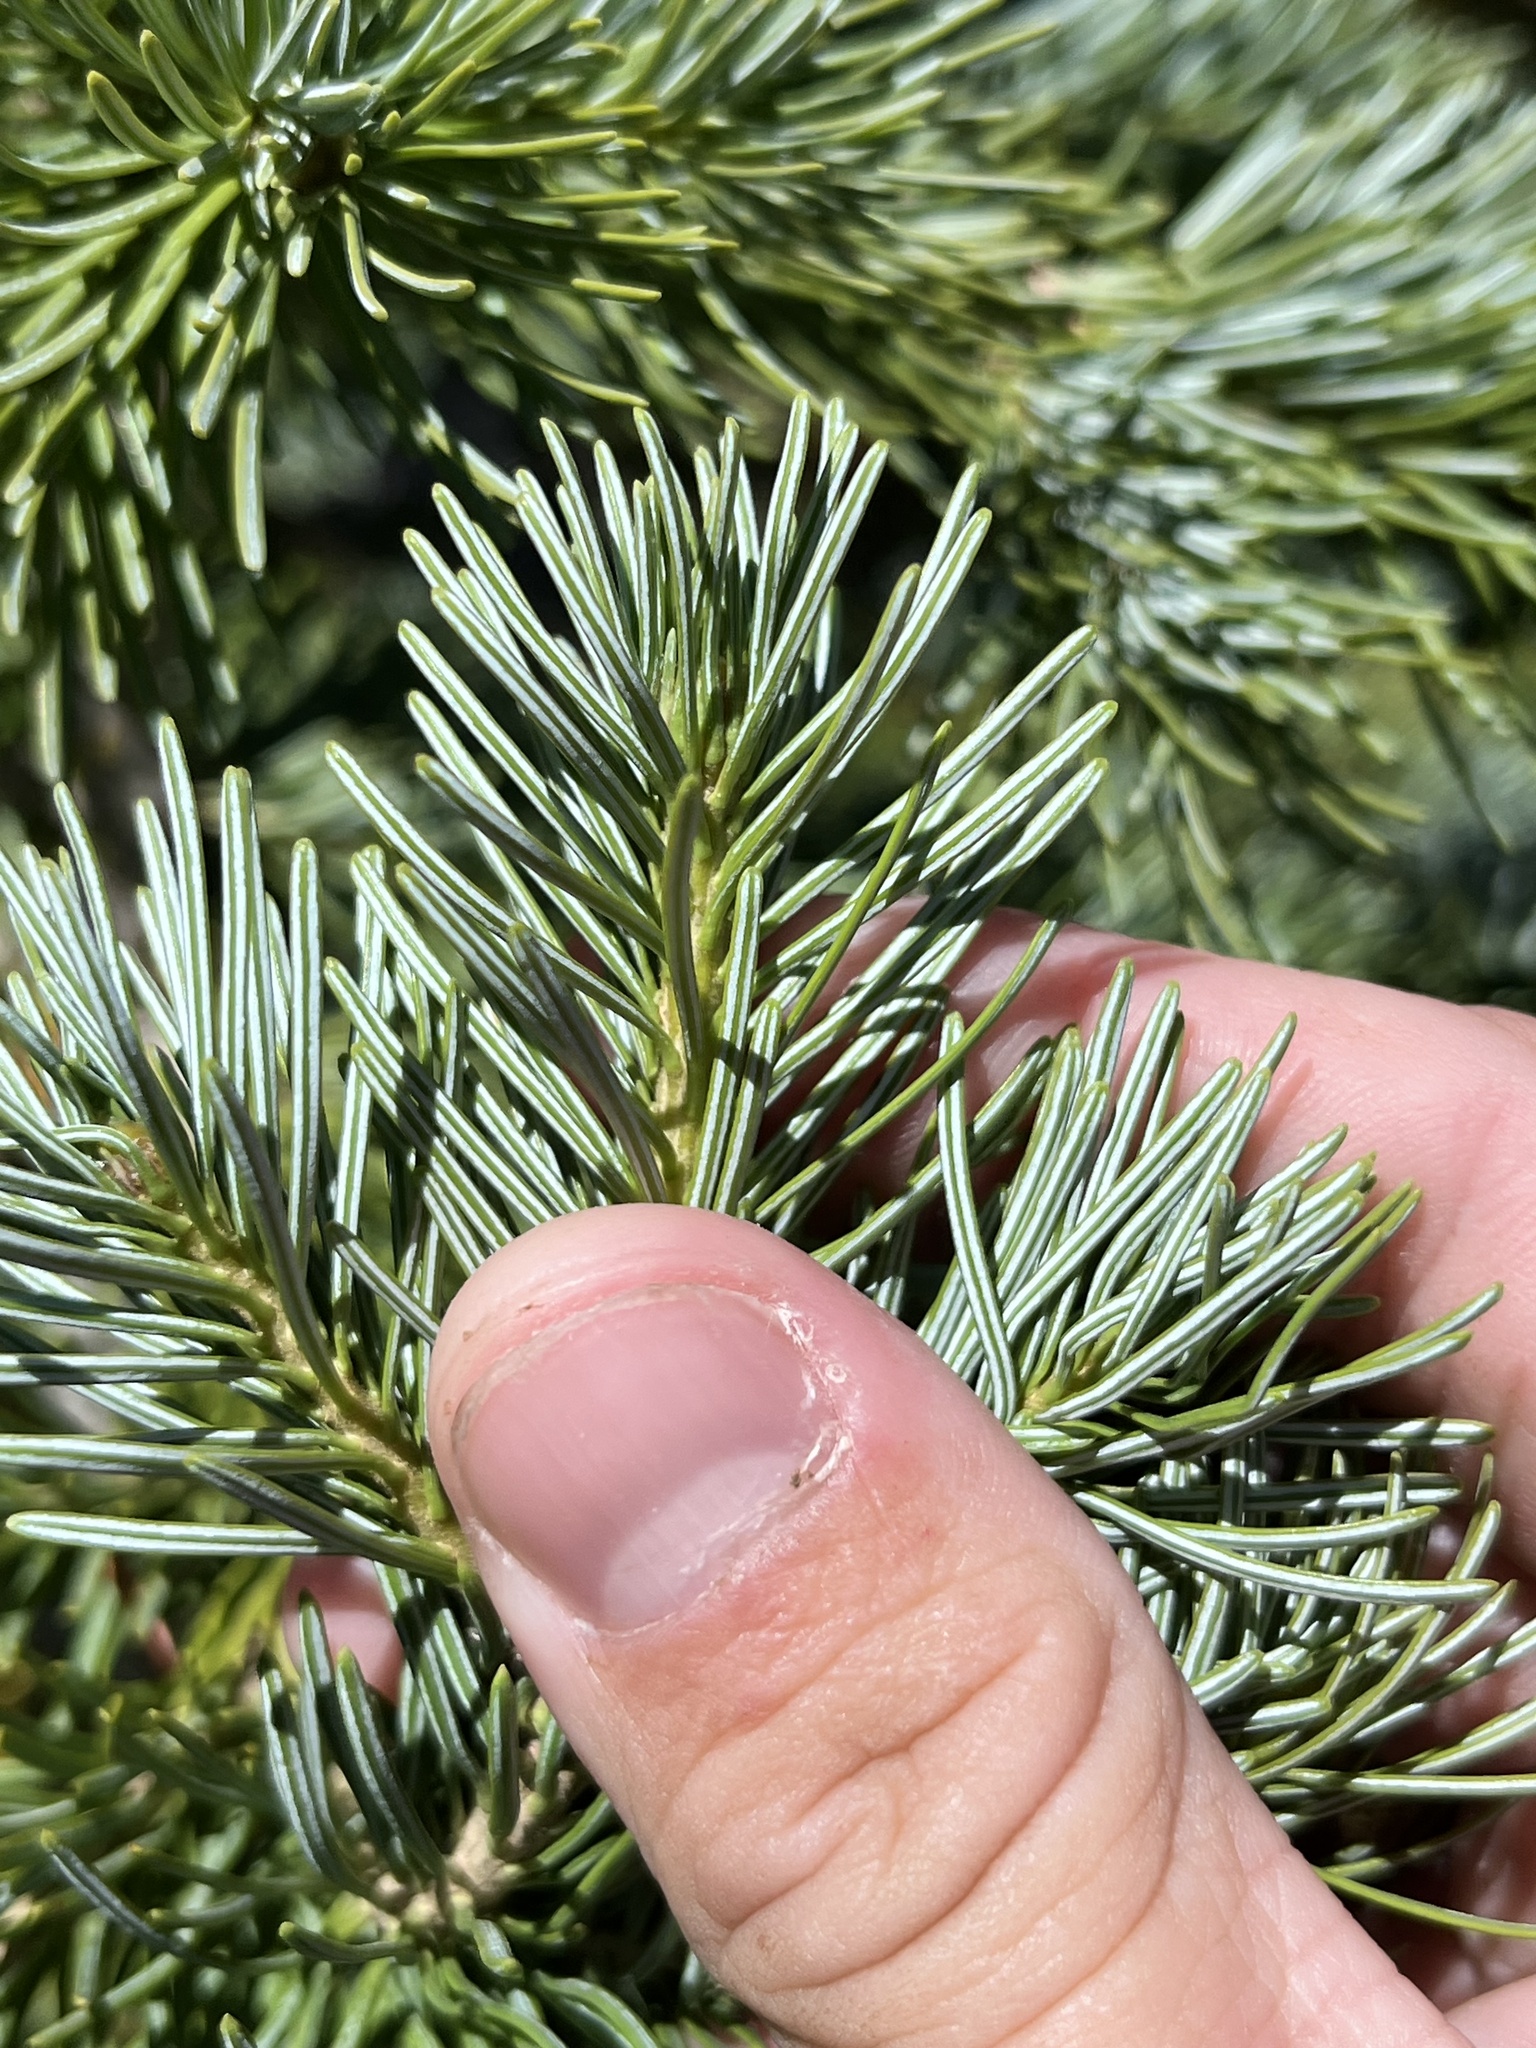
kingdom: Plantae
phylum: Tracheophyta
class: Pinopsida
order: Pinales
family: Pinaceae
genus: Abies
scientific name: Abies lasiocarpa
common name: Subalpine fir
